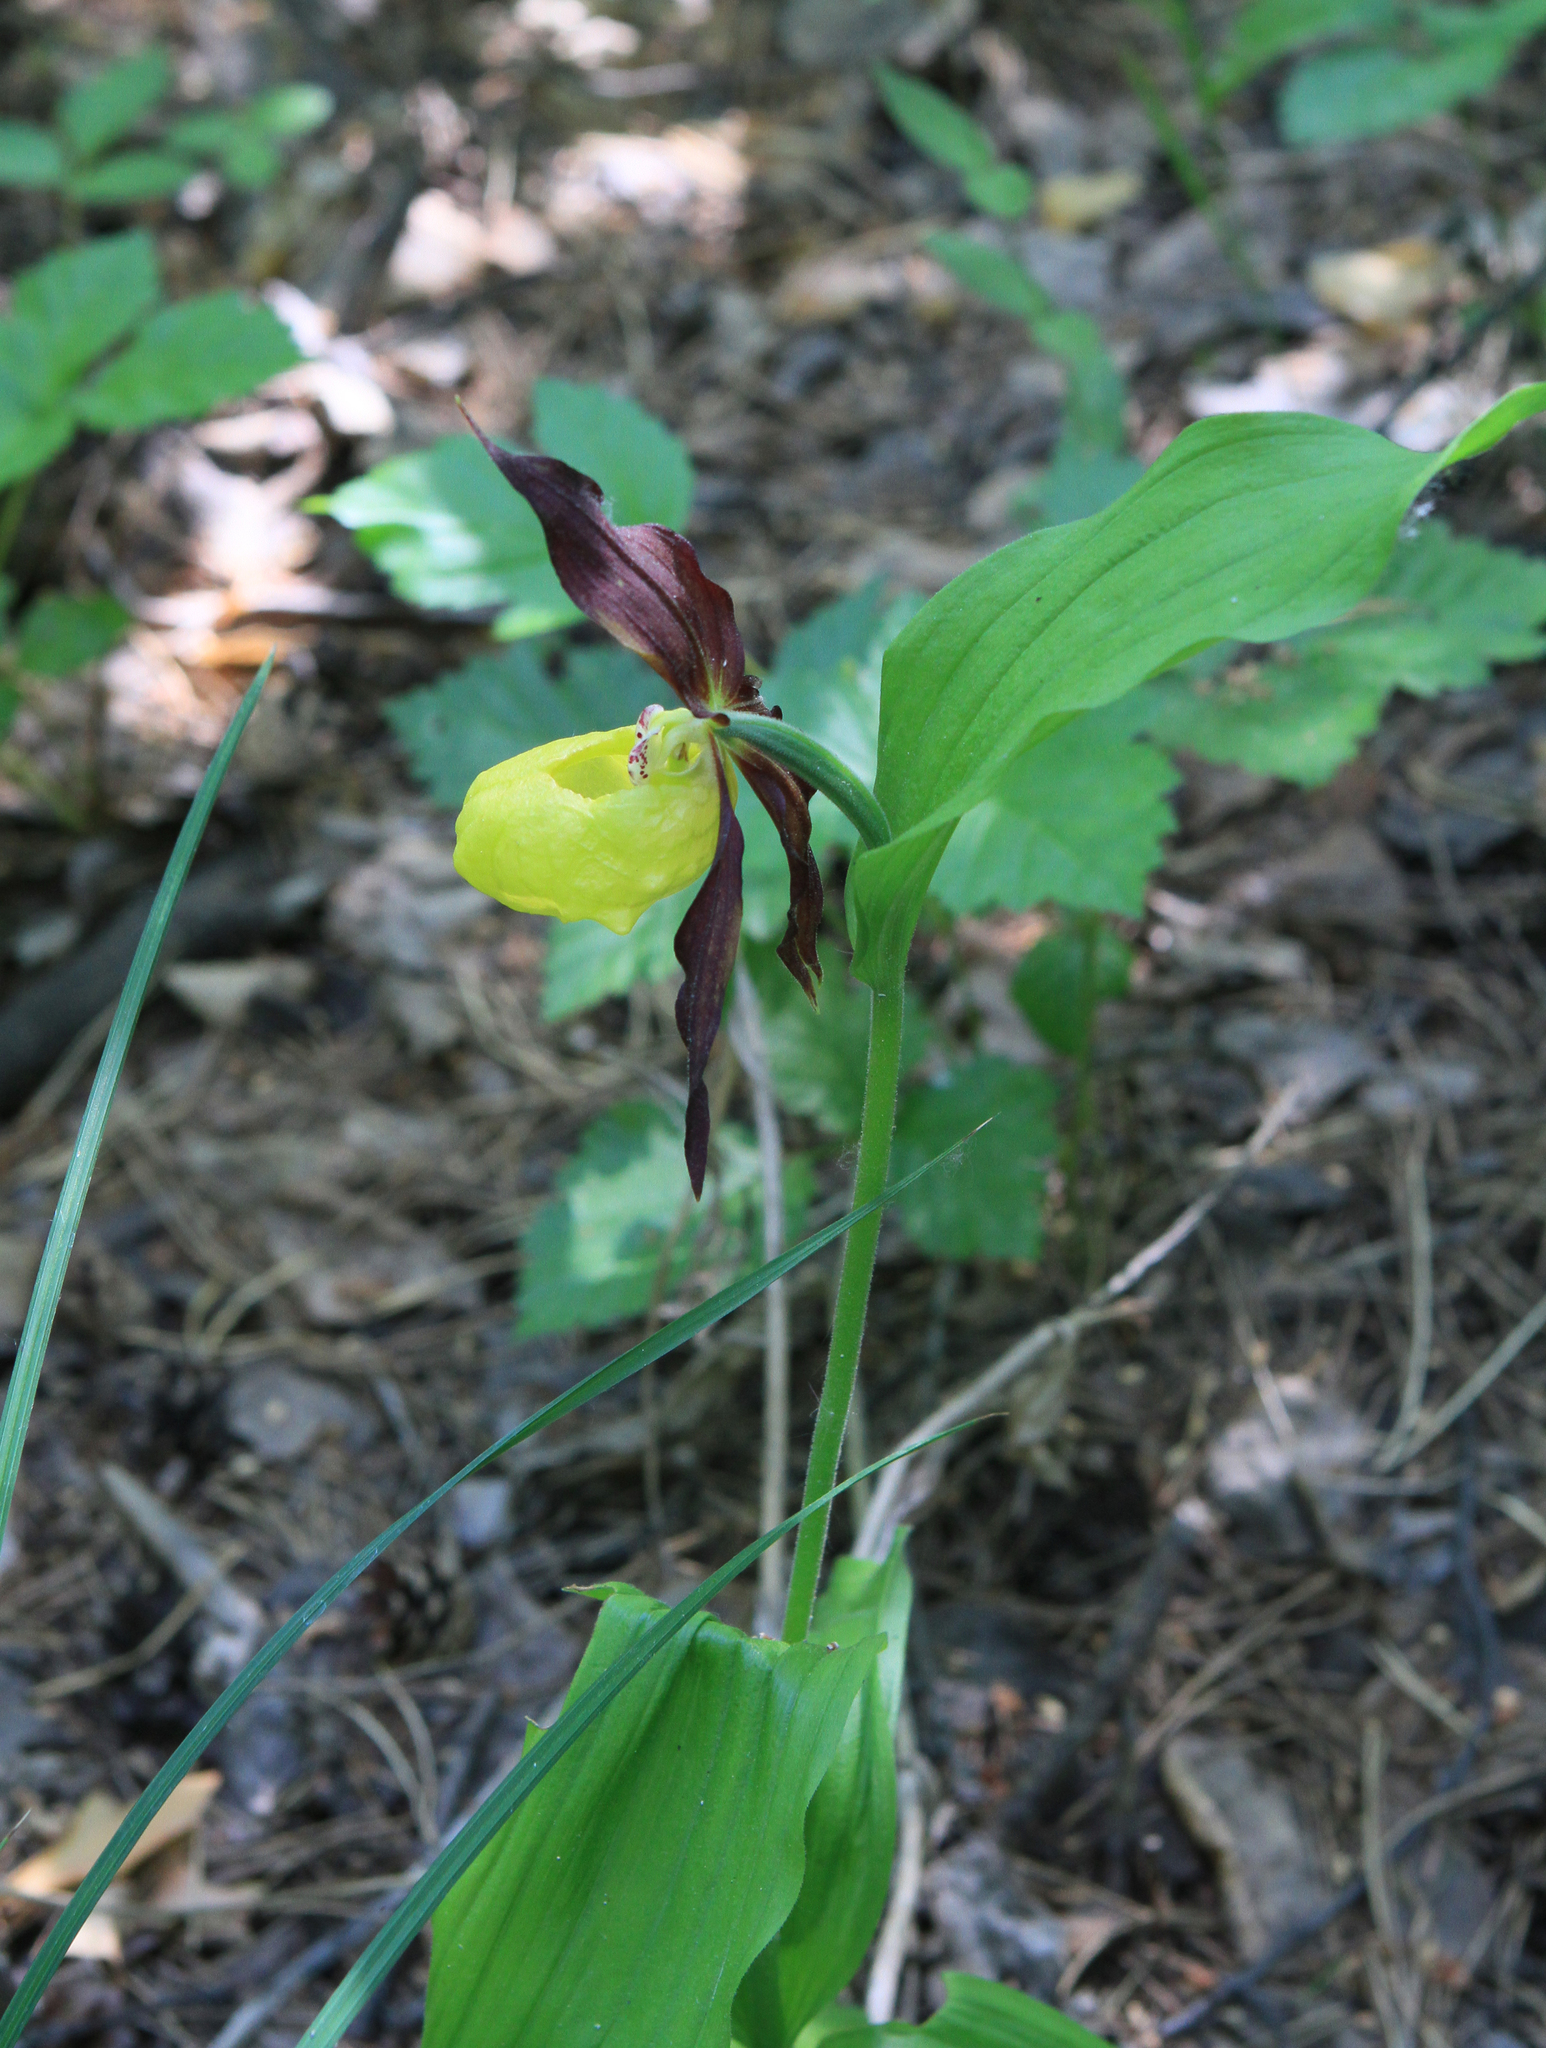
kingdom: Plantae
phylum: Tracheophyta
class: Liliopsida
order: Asparagales
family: Orchidaceae
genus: Cypripedium
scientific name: Cypripedium calceolus
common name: Lady's-slipper
